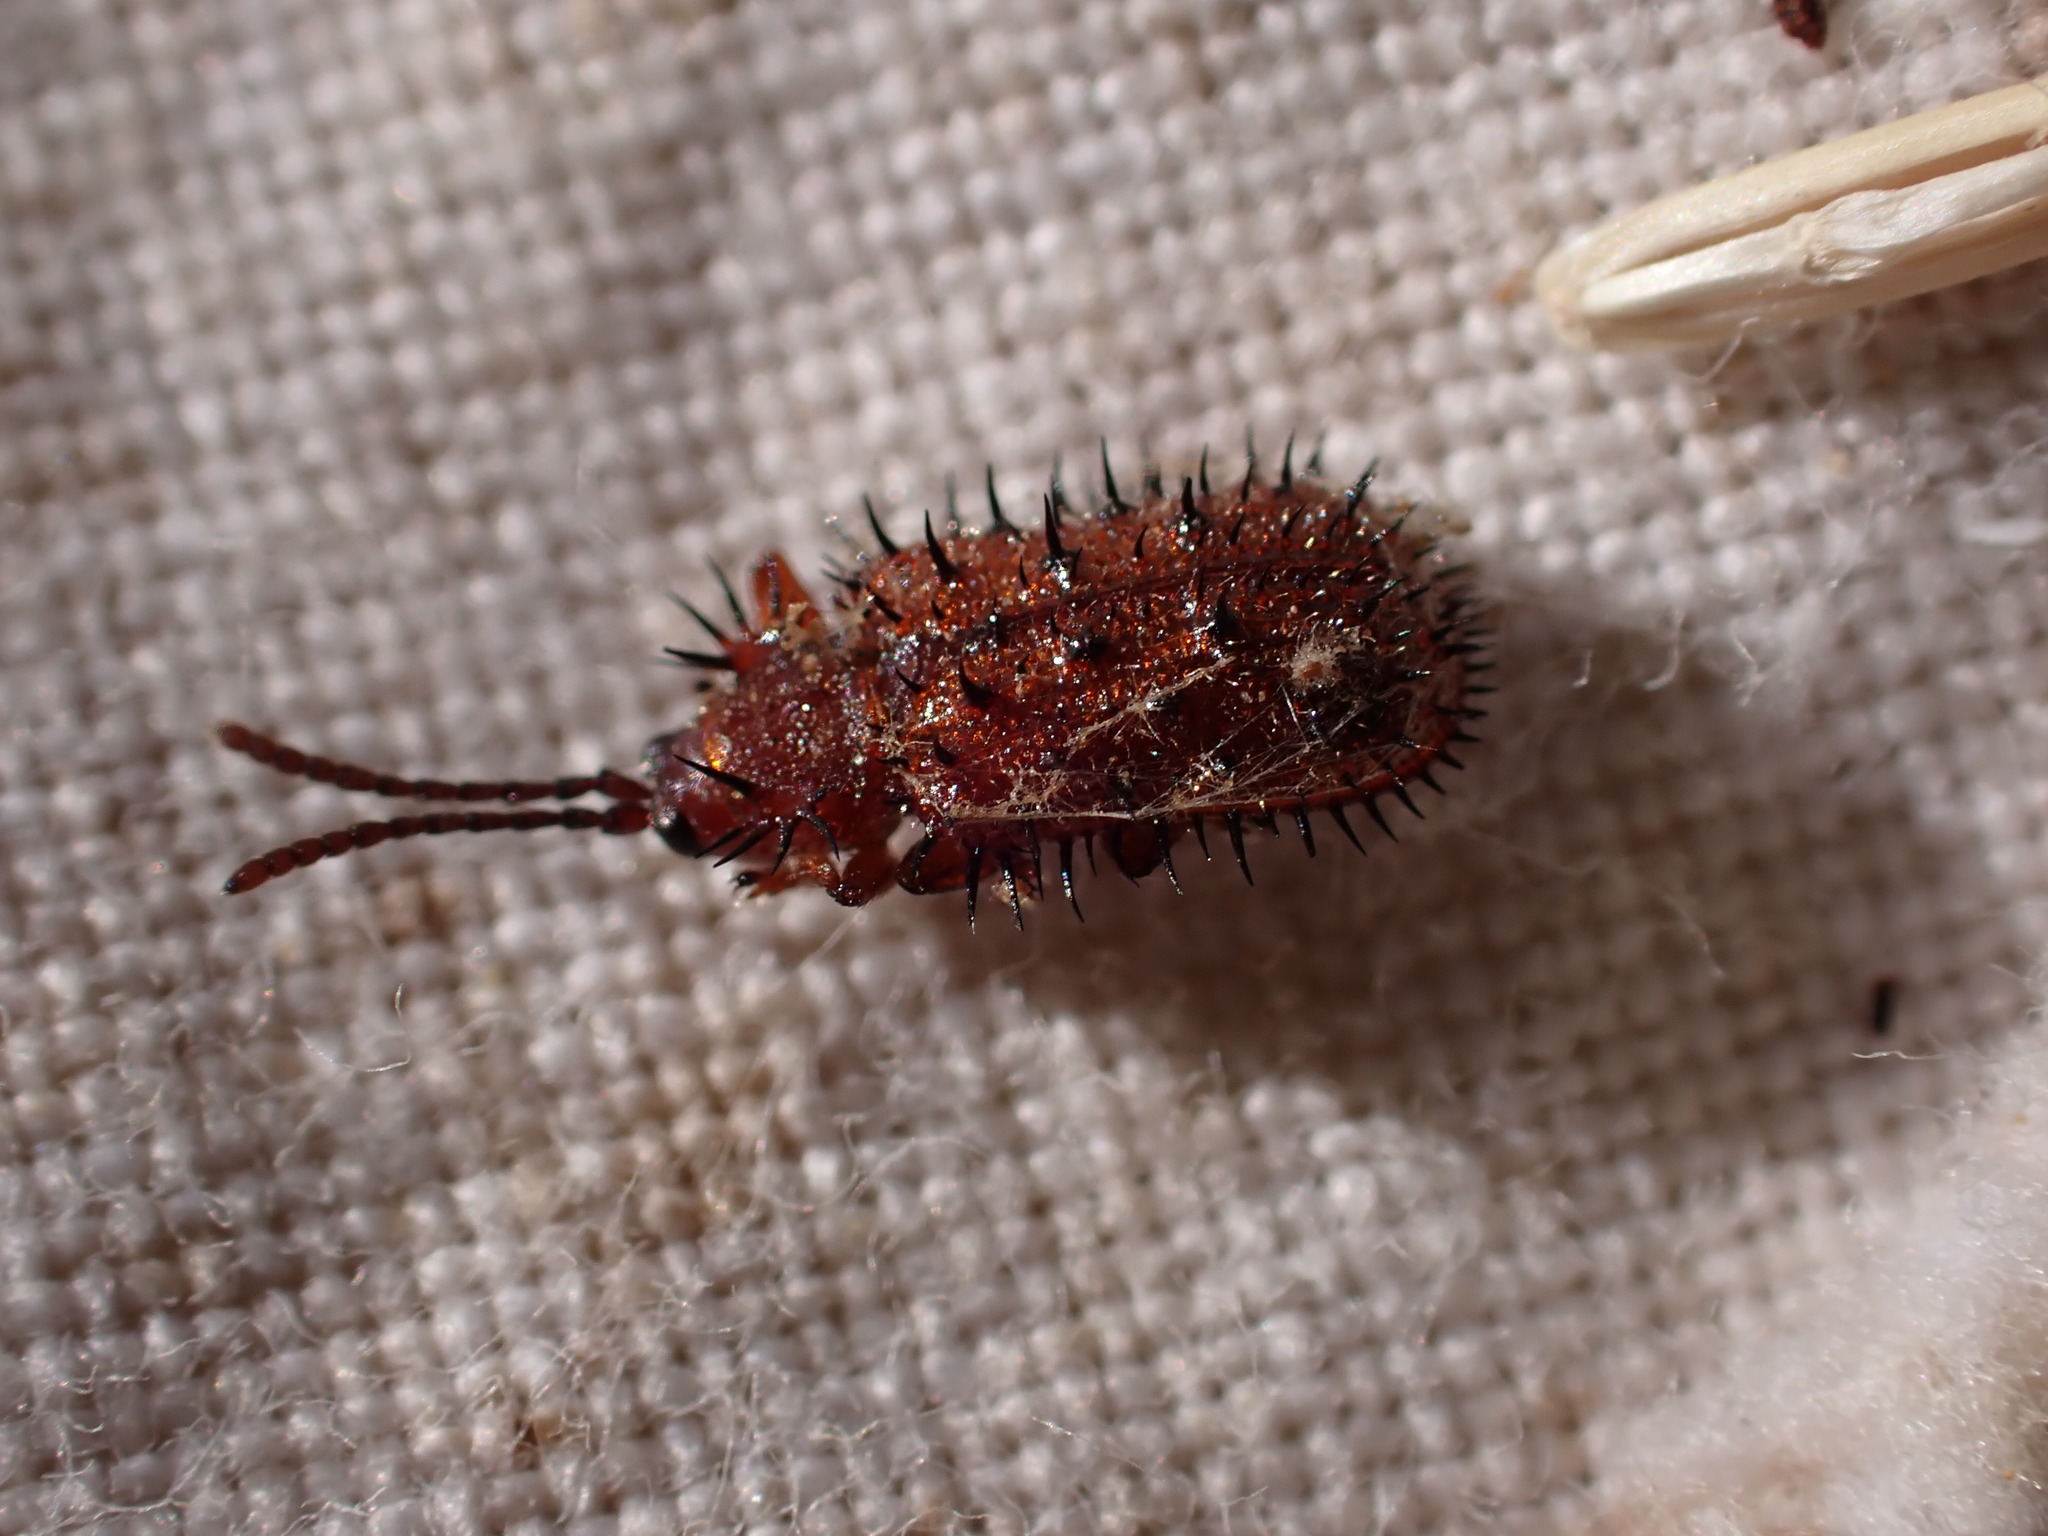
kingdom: Animalia
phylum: Arthropoda
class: Insecta
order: Coleoptera
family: Chrysomelidae
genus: Dicladispa
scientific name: Dicladispa testacea
